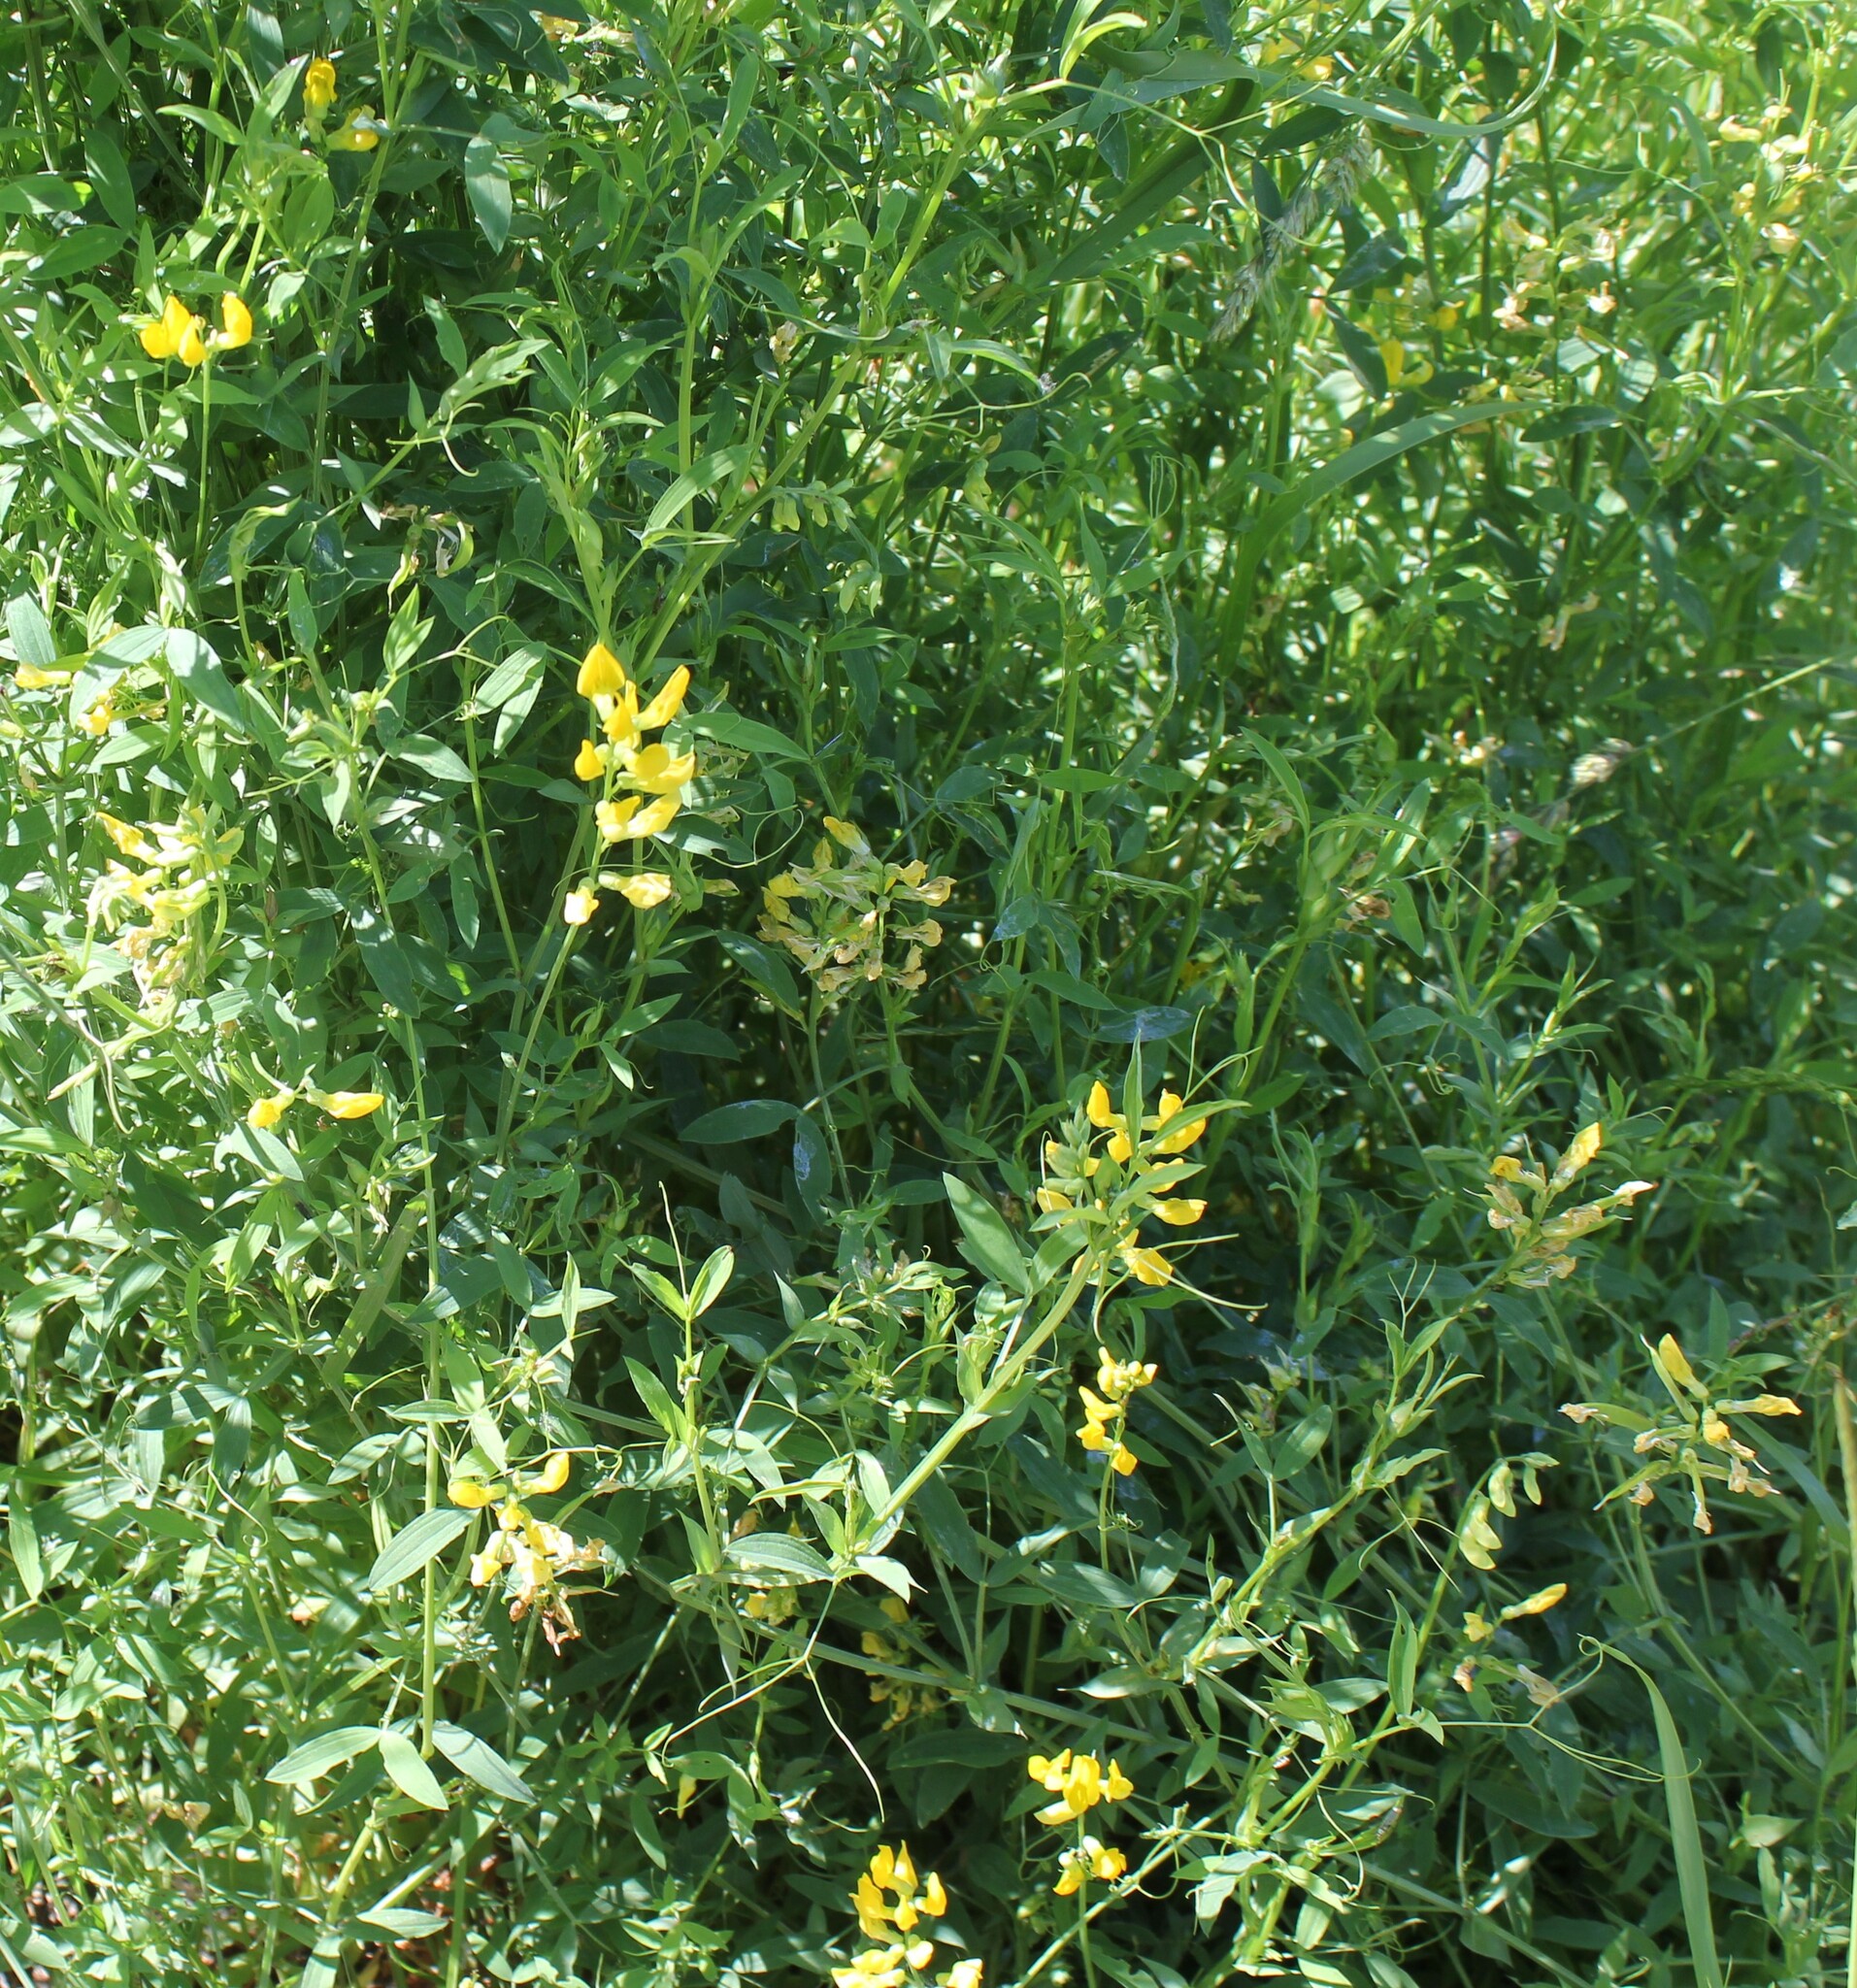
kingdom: Plantae
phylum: Tracheophyta
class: Magnoliopsida
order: Fabales
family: Fabaceae
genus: Lathyrus
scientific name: Lathyrus pratensis
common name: Meadow vetchling
